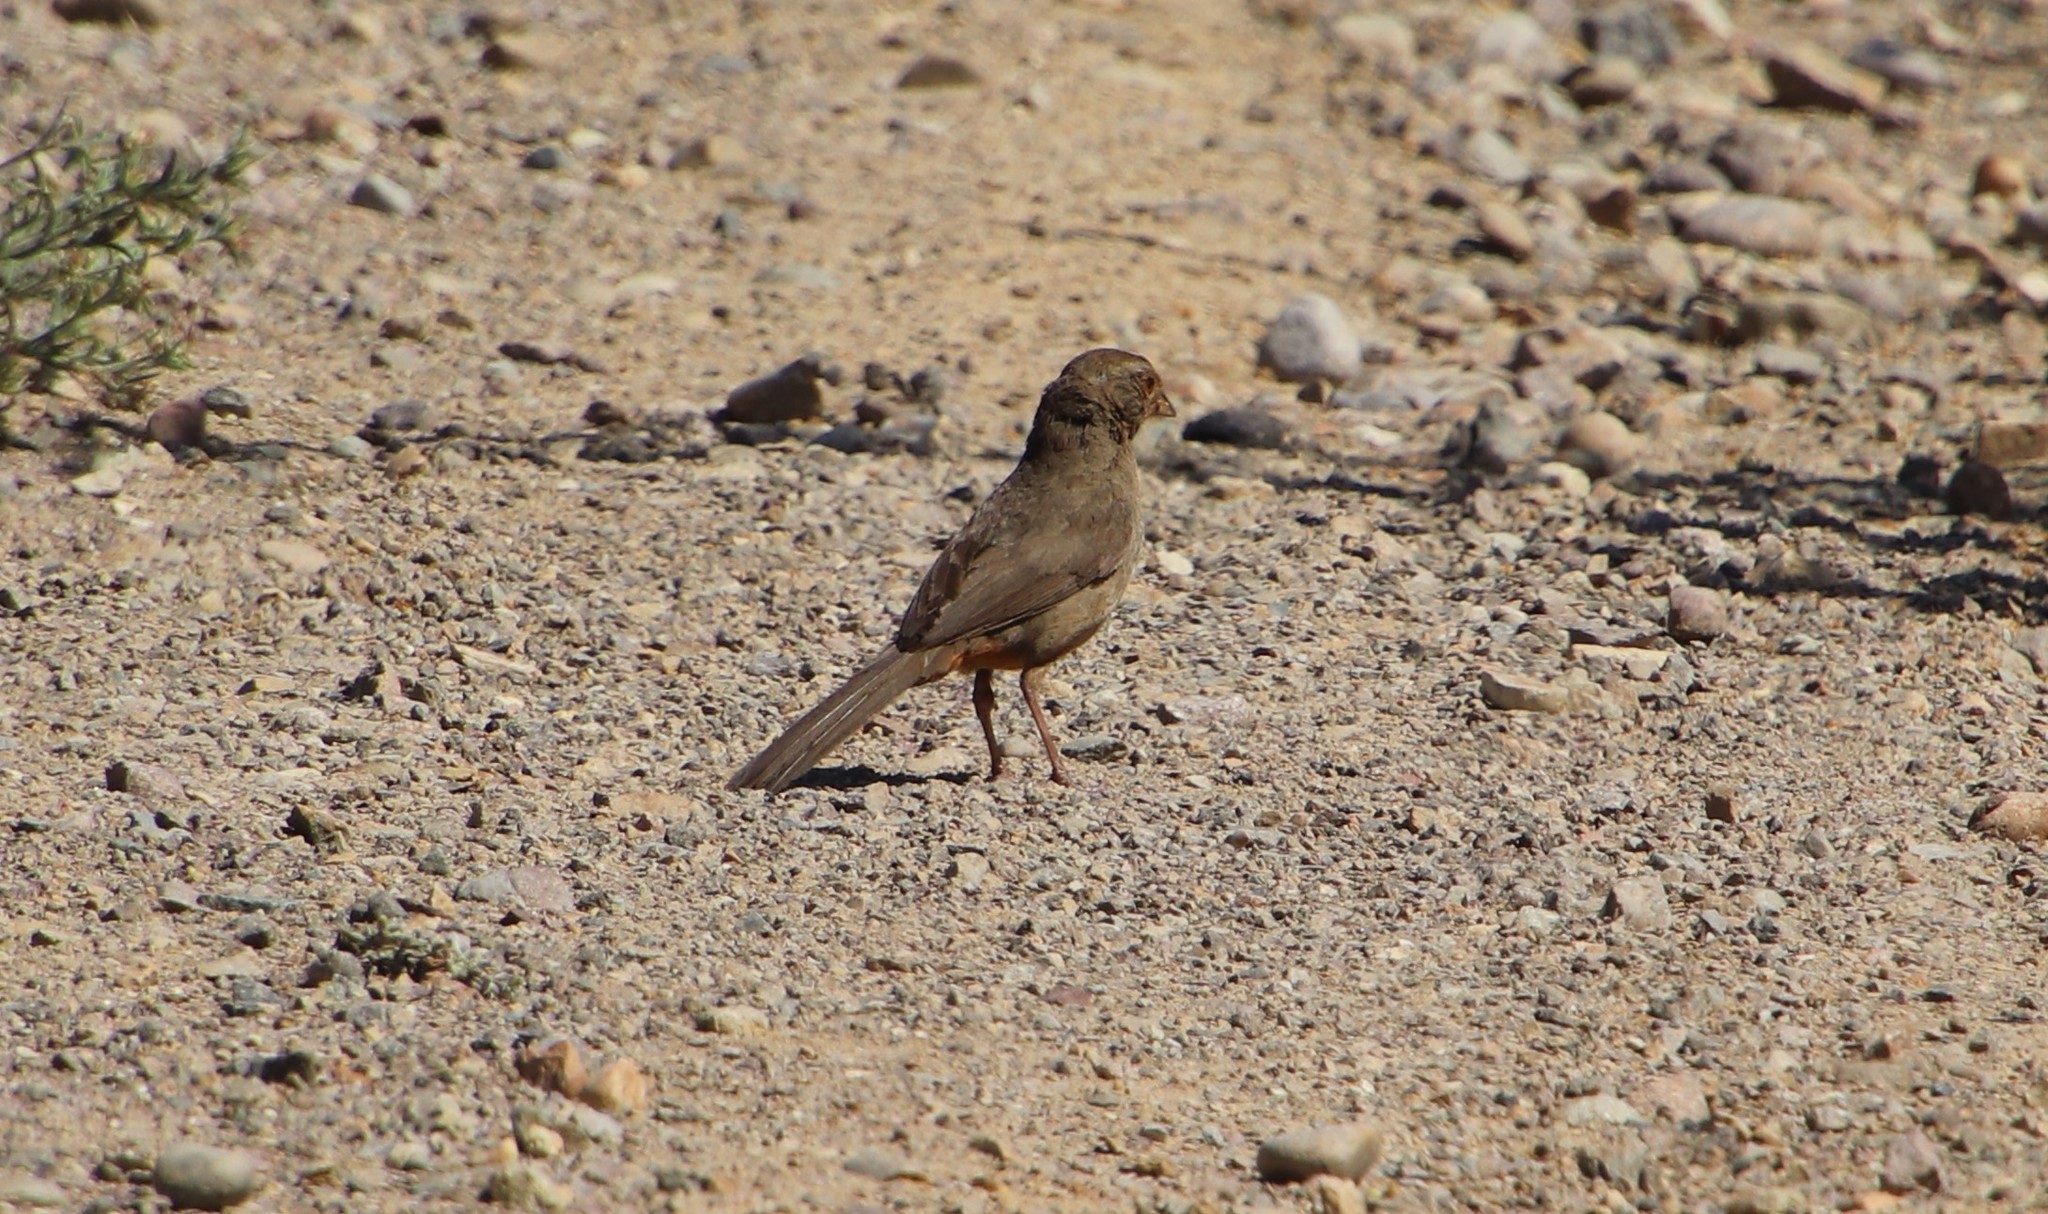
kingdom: Animalia
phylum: Chordata
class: Aves
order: Passeriformes
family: Passerellidae
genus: Melozone
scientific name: Melozone crissalis
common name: California towhee
